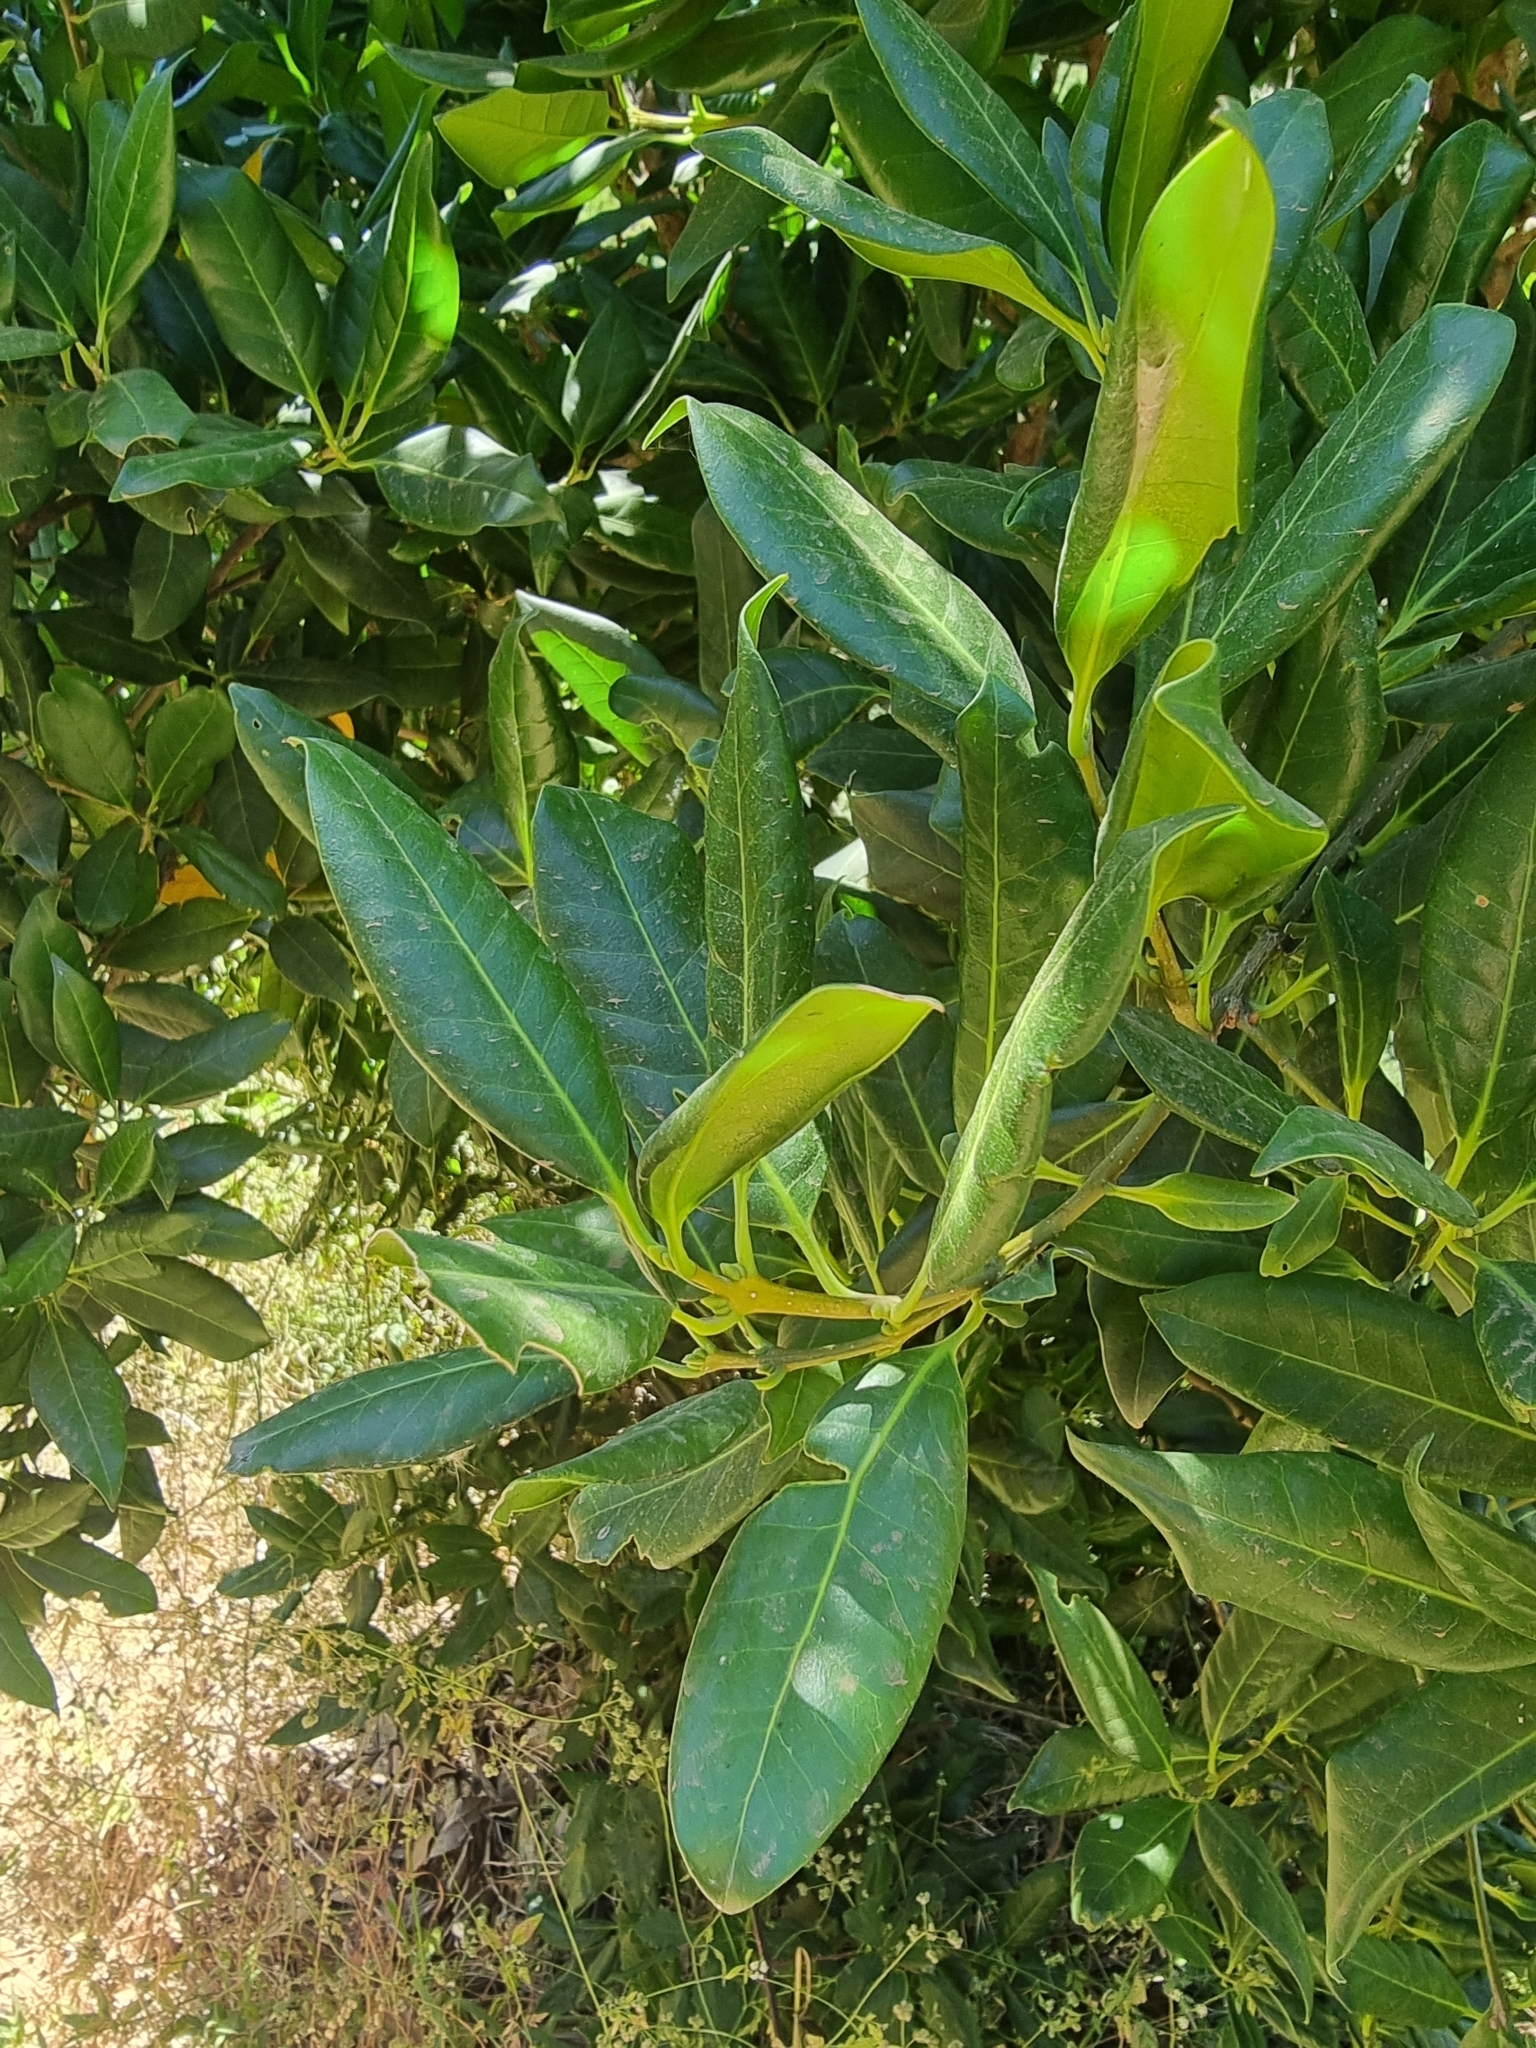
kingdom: Plantae
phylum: Tracheophyta
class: Magnoliopsida
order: Lamiales
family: Oleaceae
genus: Picconia
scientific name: Picconia excelsa
